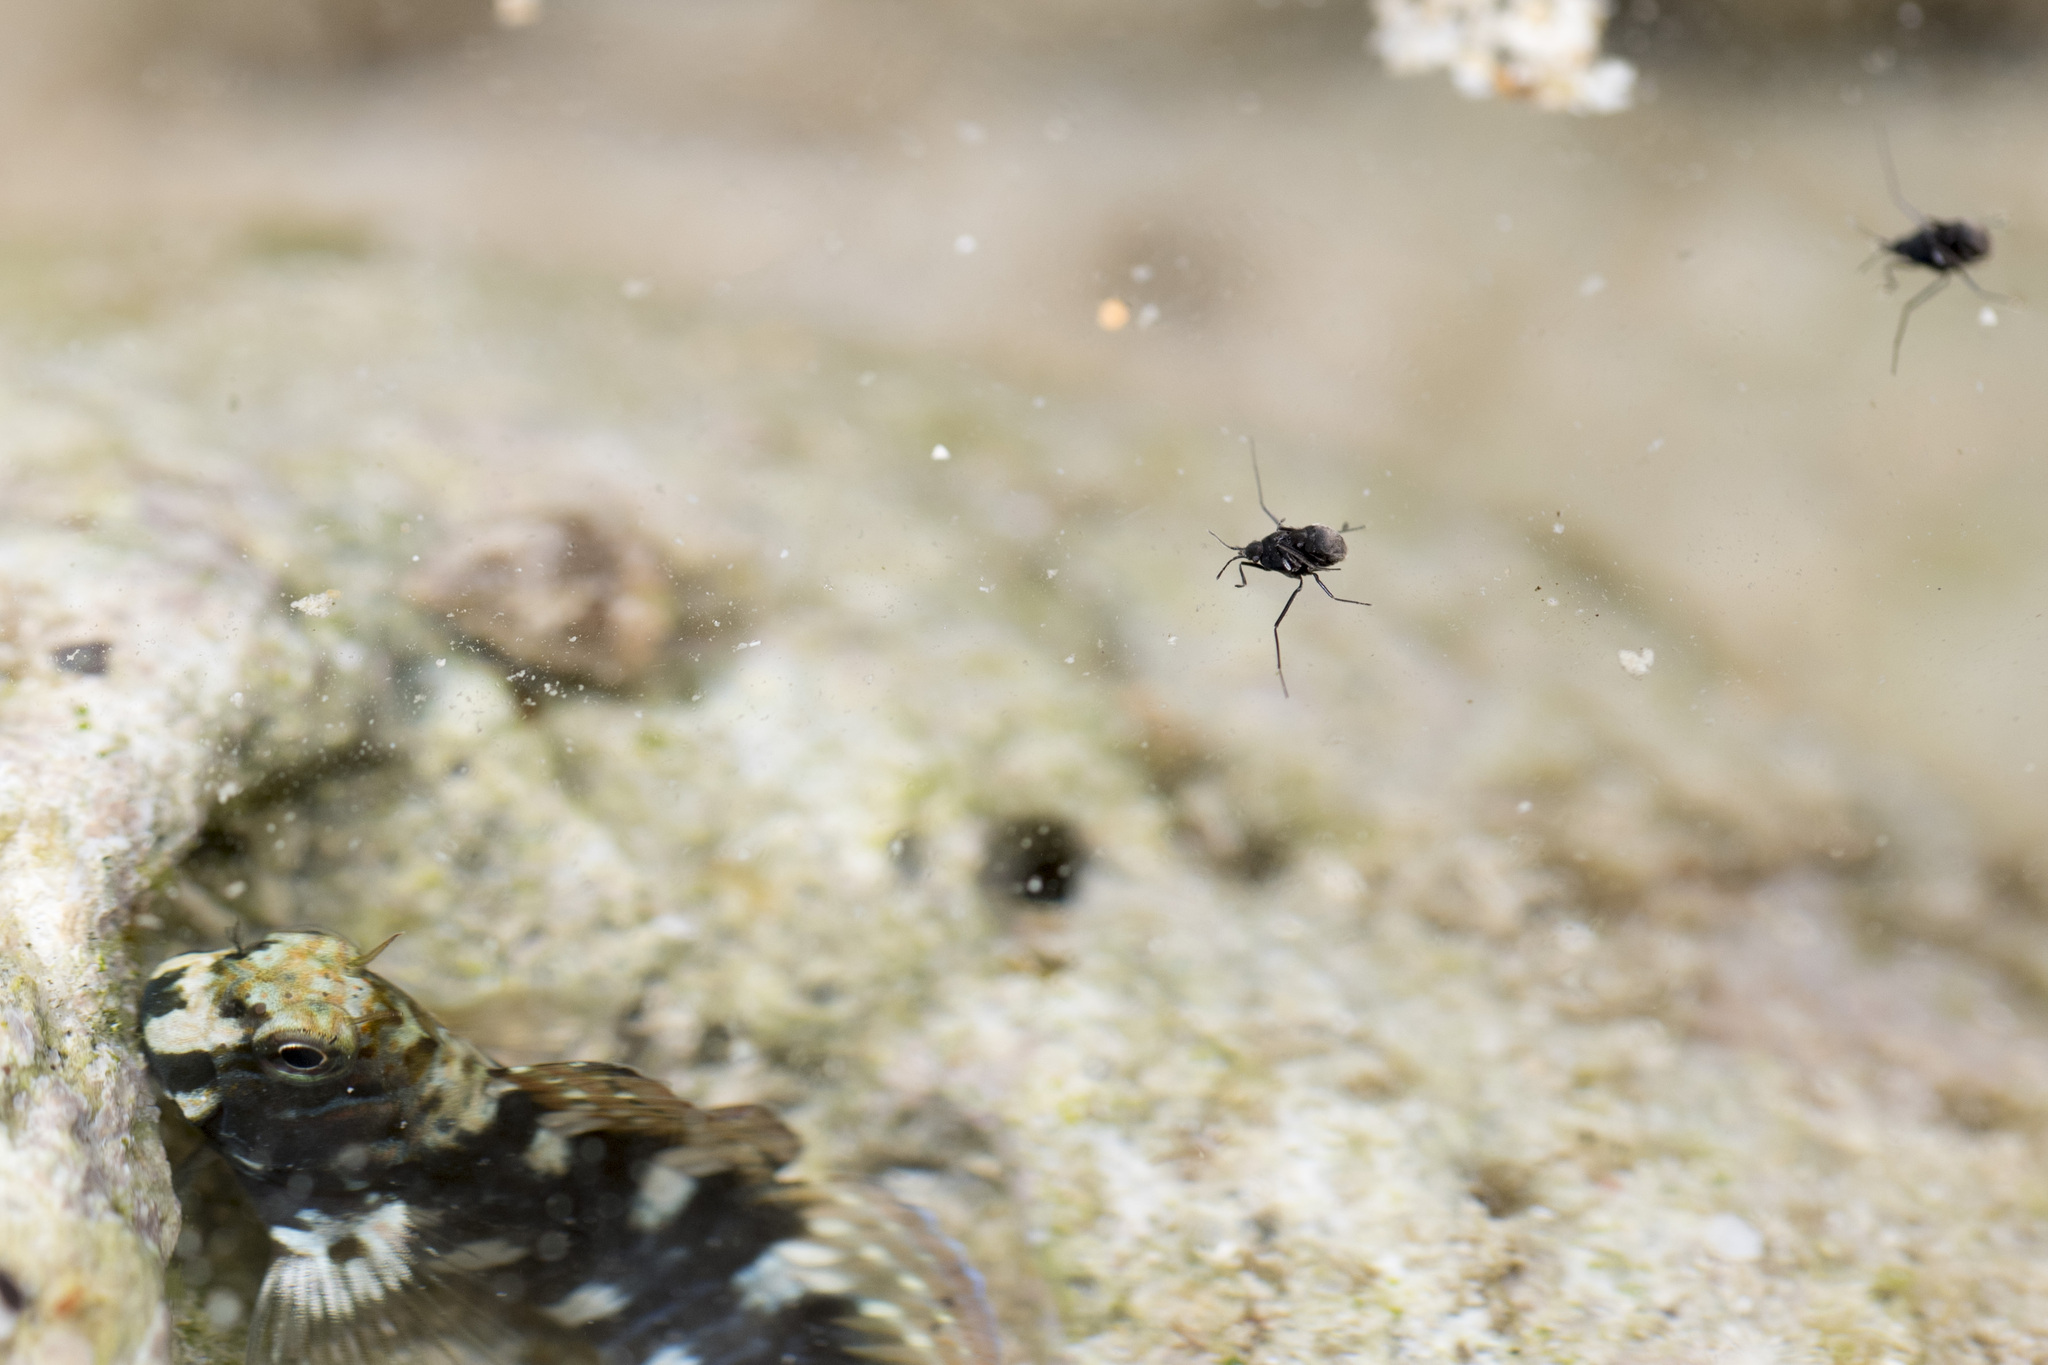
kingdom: Animalia
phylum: Arthropoda
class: Insecta
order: Hemiptera
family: Veliidae
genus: Halovelia
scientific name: Halovelia septentrionalis
